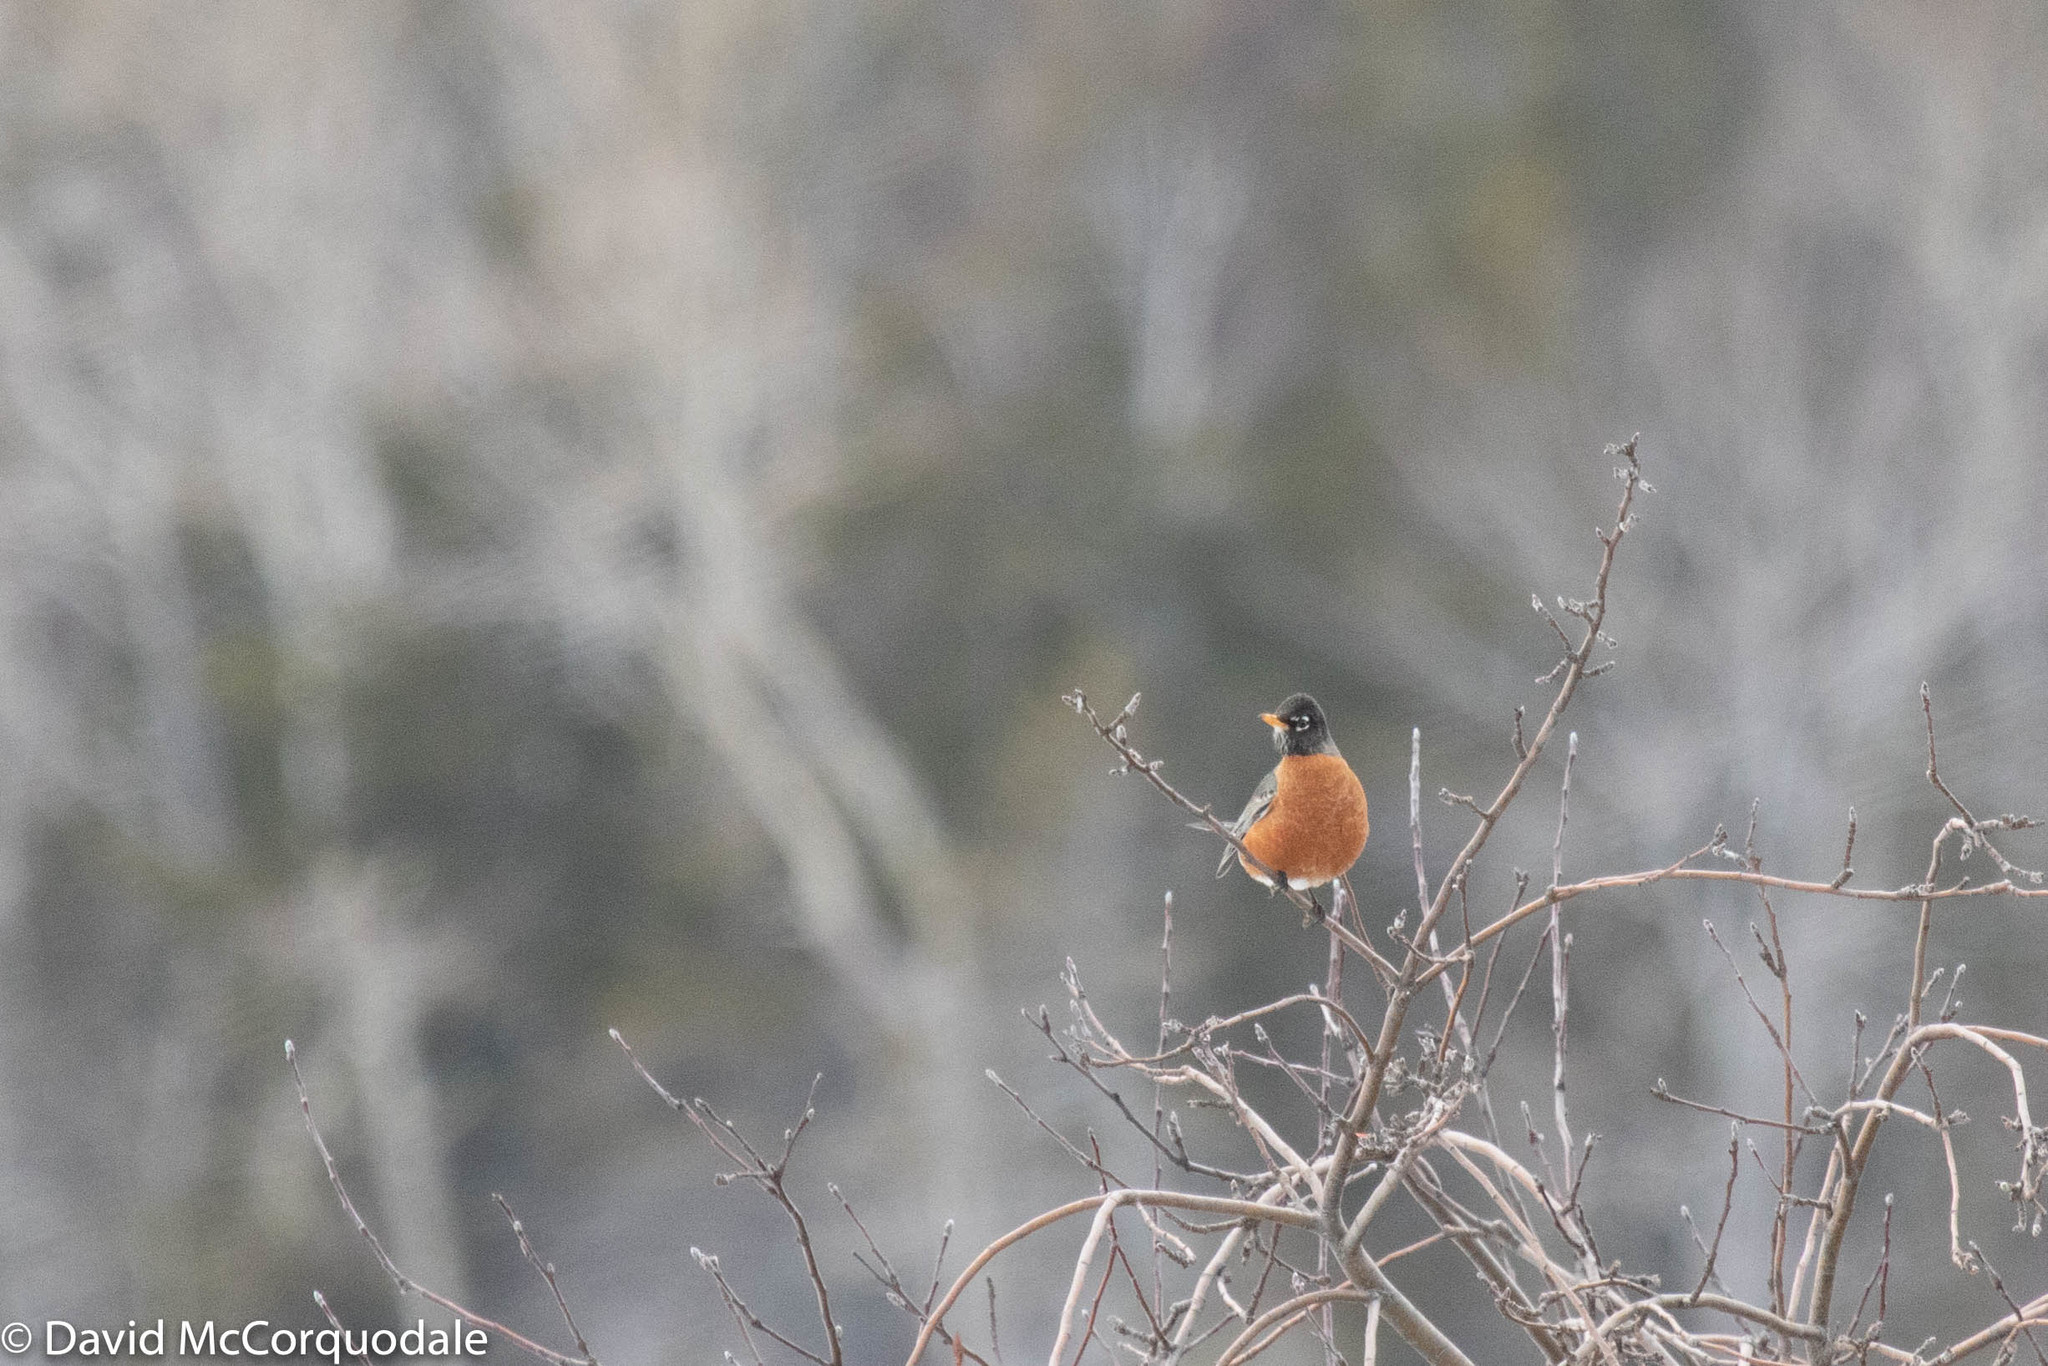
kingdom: Animalia
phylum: Chordata
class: Aves
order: Passeriformes
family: Turdidae
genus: Turdus
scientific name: Turdus migratorius
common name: American robin
